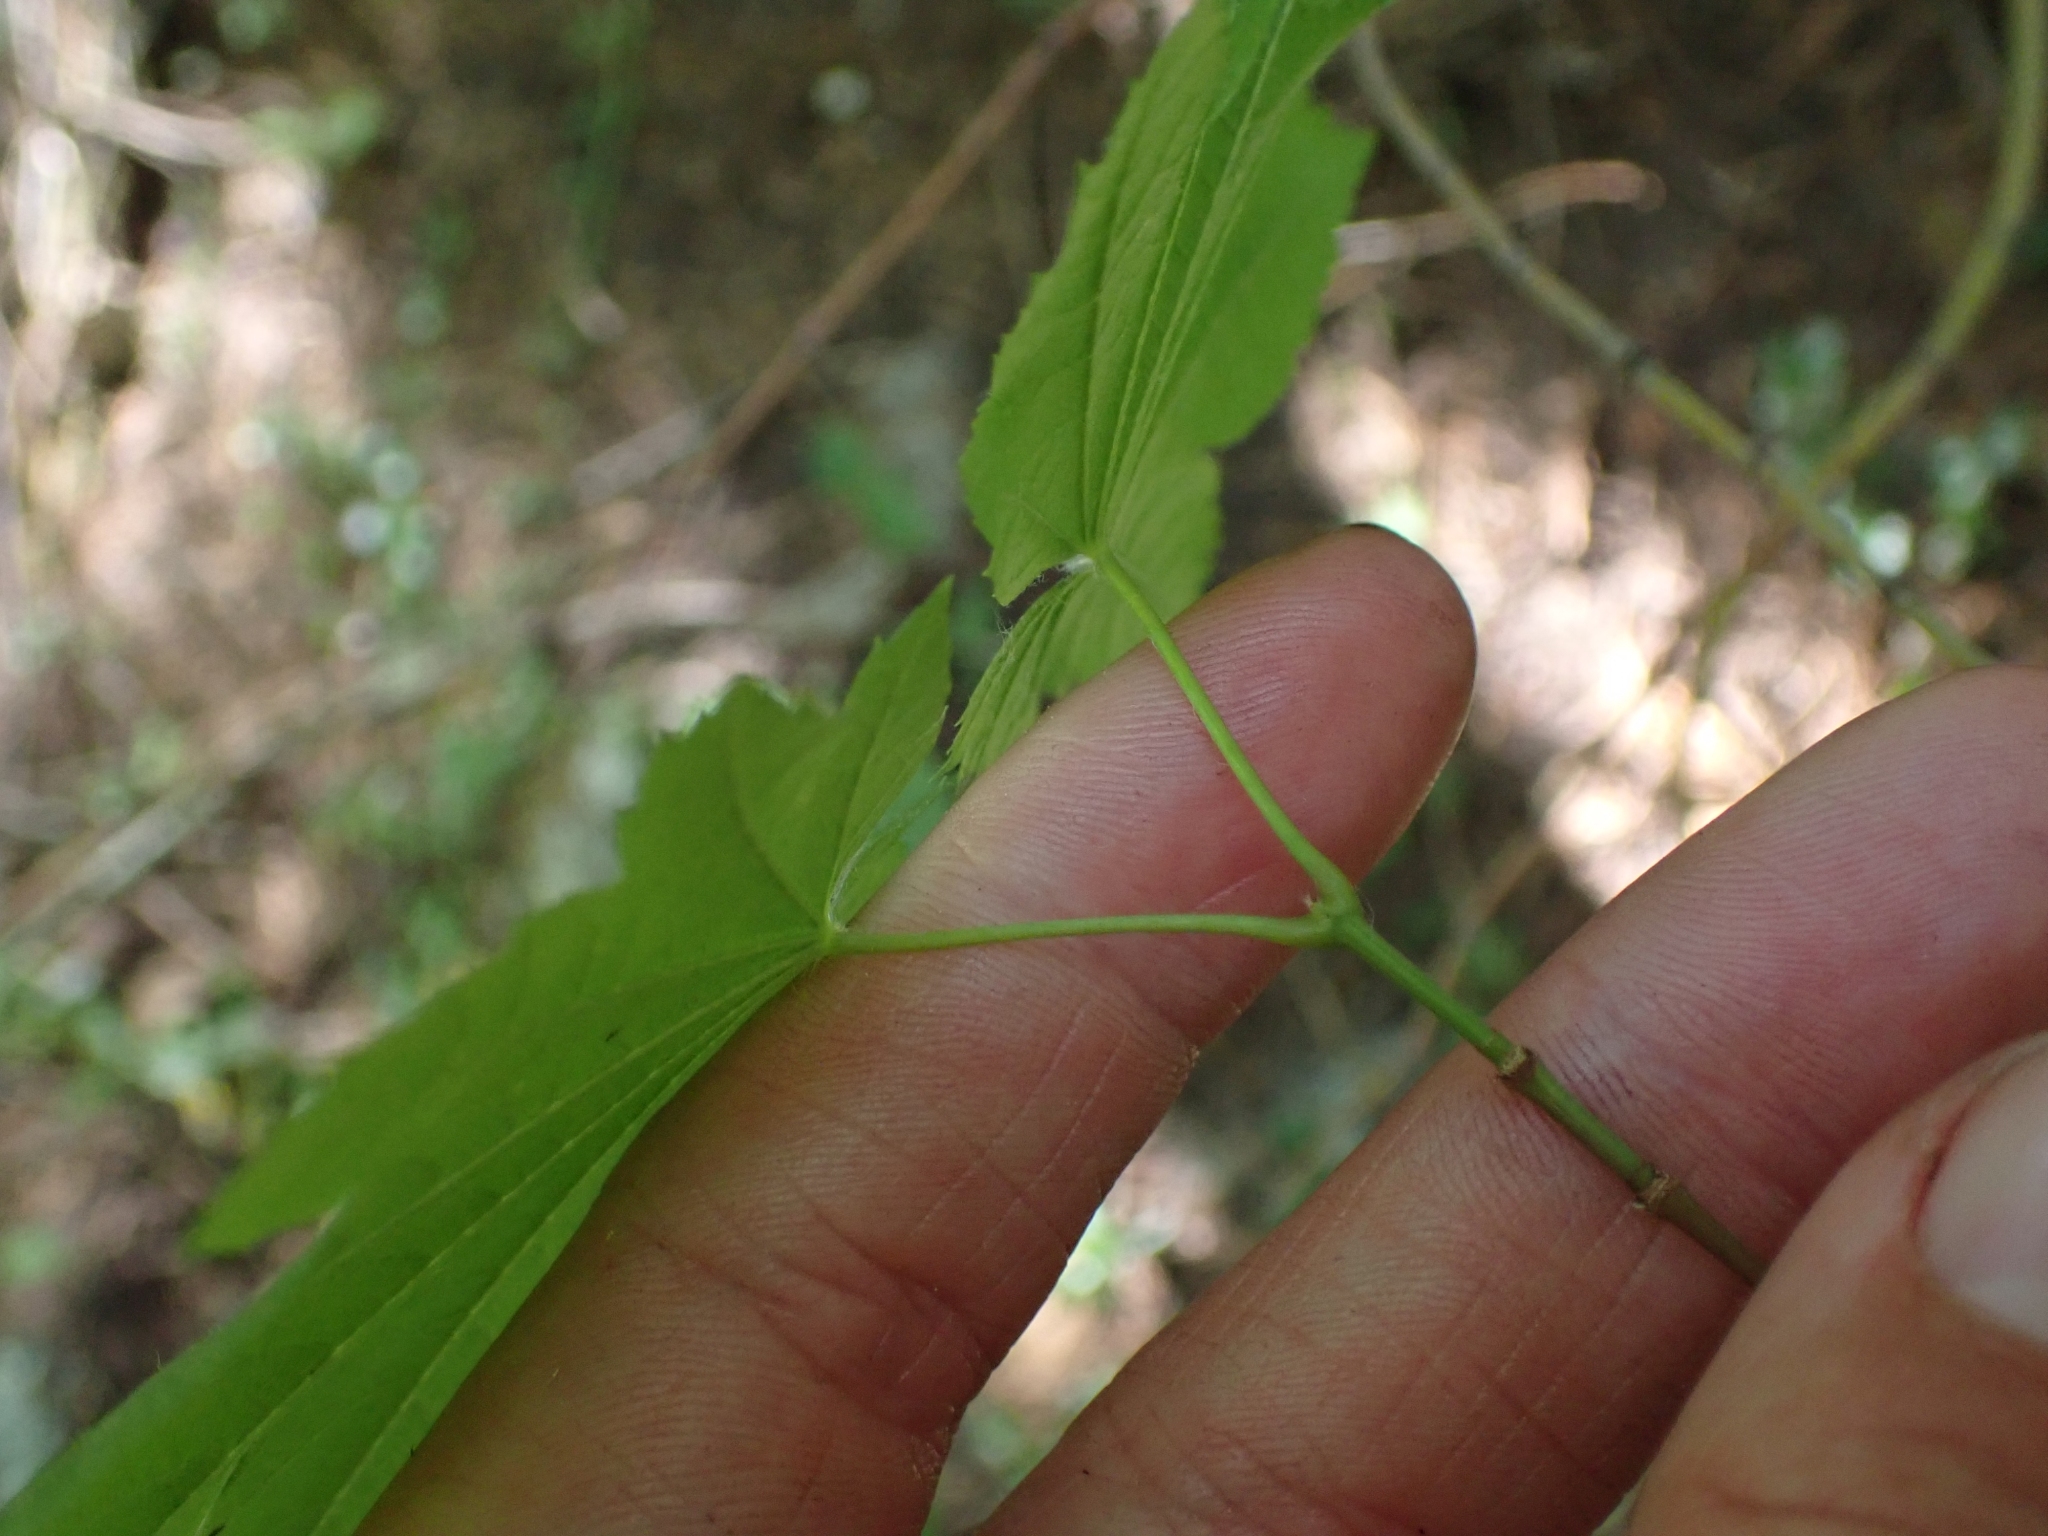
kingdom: Plantae
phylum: Tracheophyta
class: Magnoliopsida
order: Sapindales
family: Sapindaceae
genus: Acer
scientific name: Acer circinatum
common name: Vine maple
